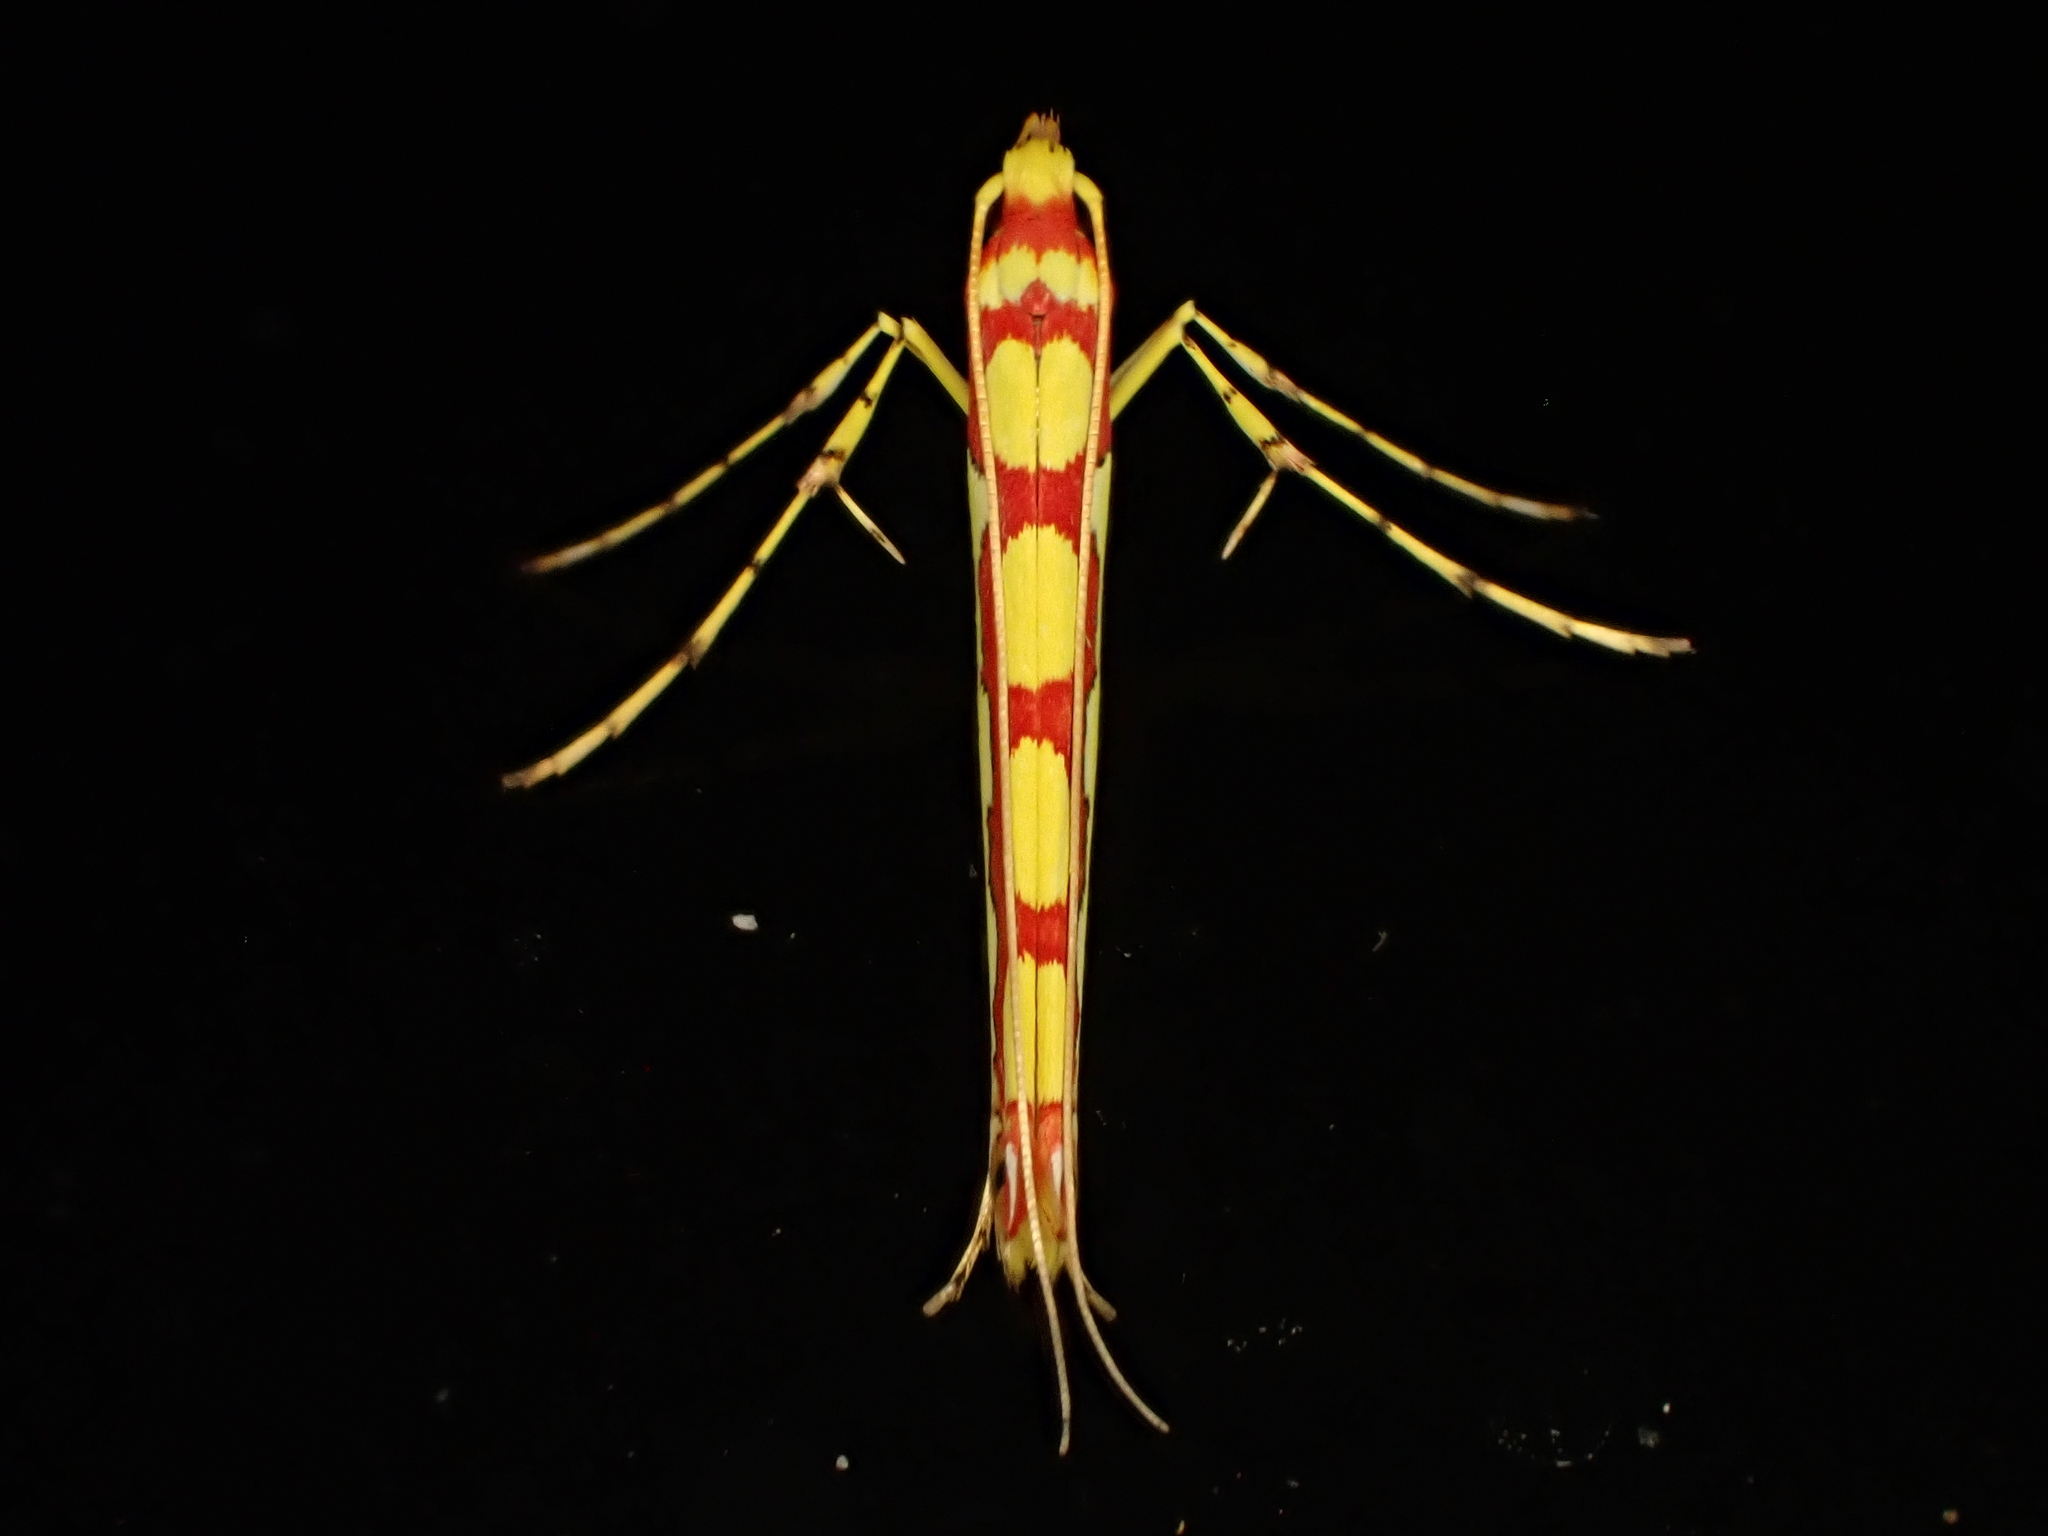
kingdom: Animalia
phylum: Arthropoda
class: Insecta
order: Lepidoptera
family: Gracillariidae
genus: Macarostola
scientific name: Macarostola miniella
